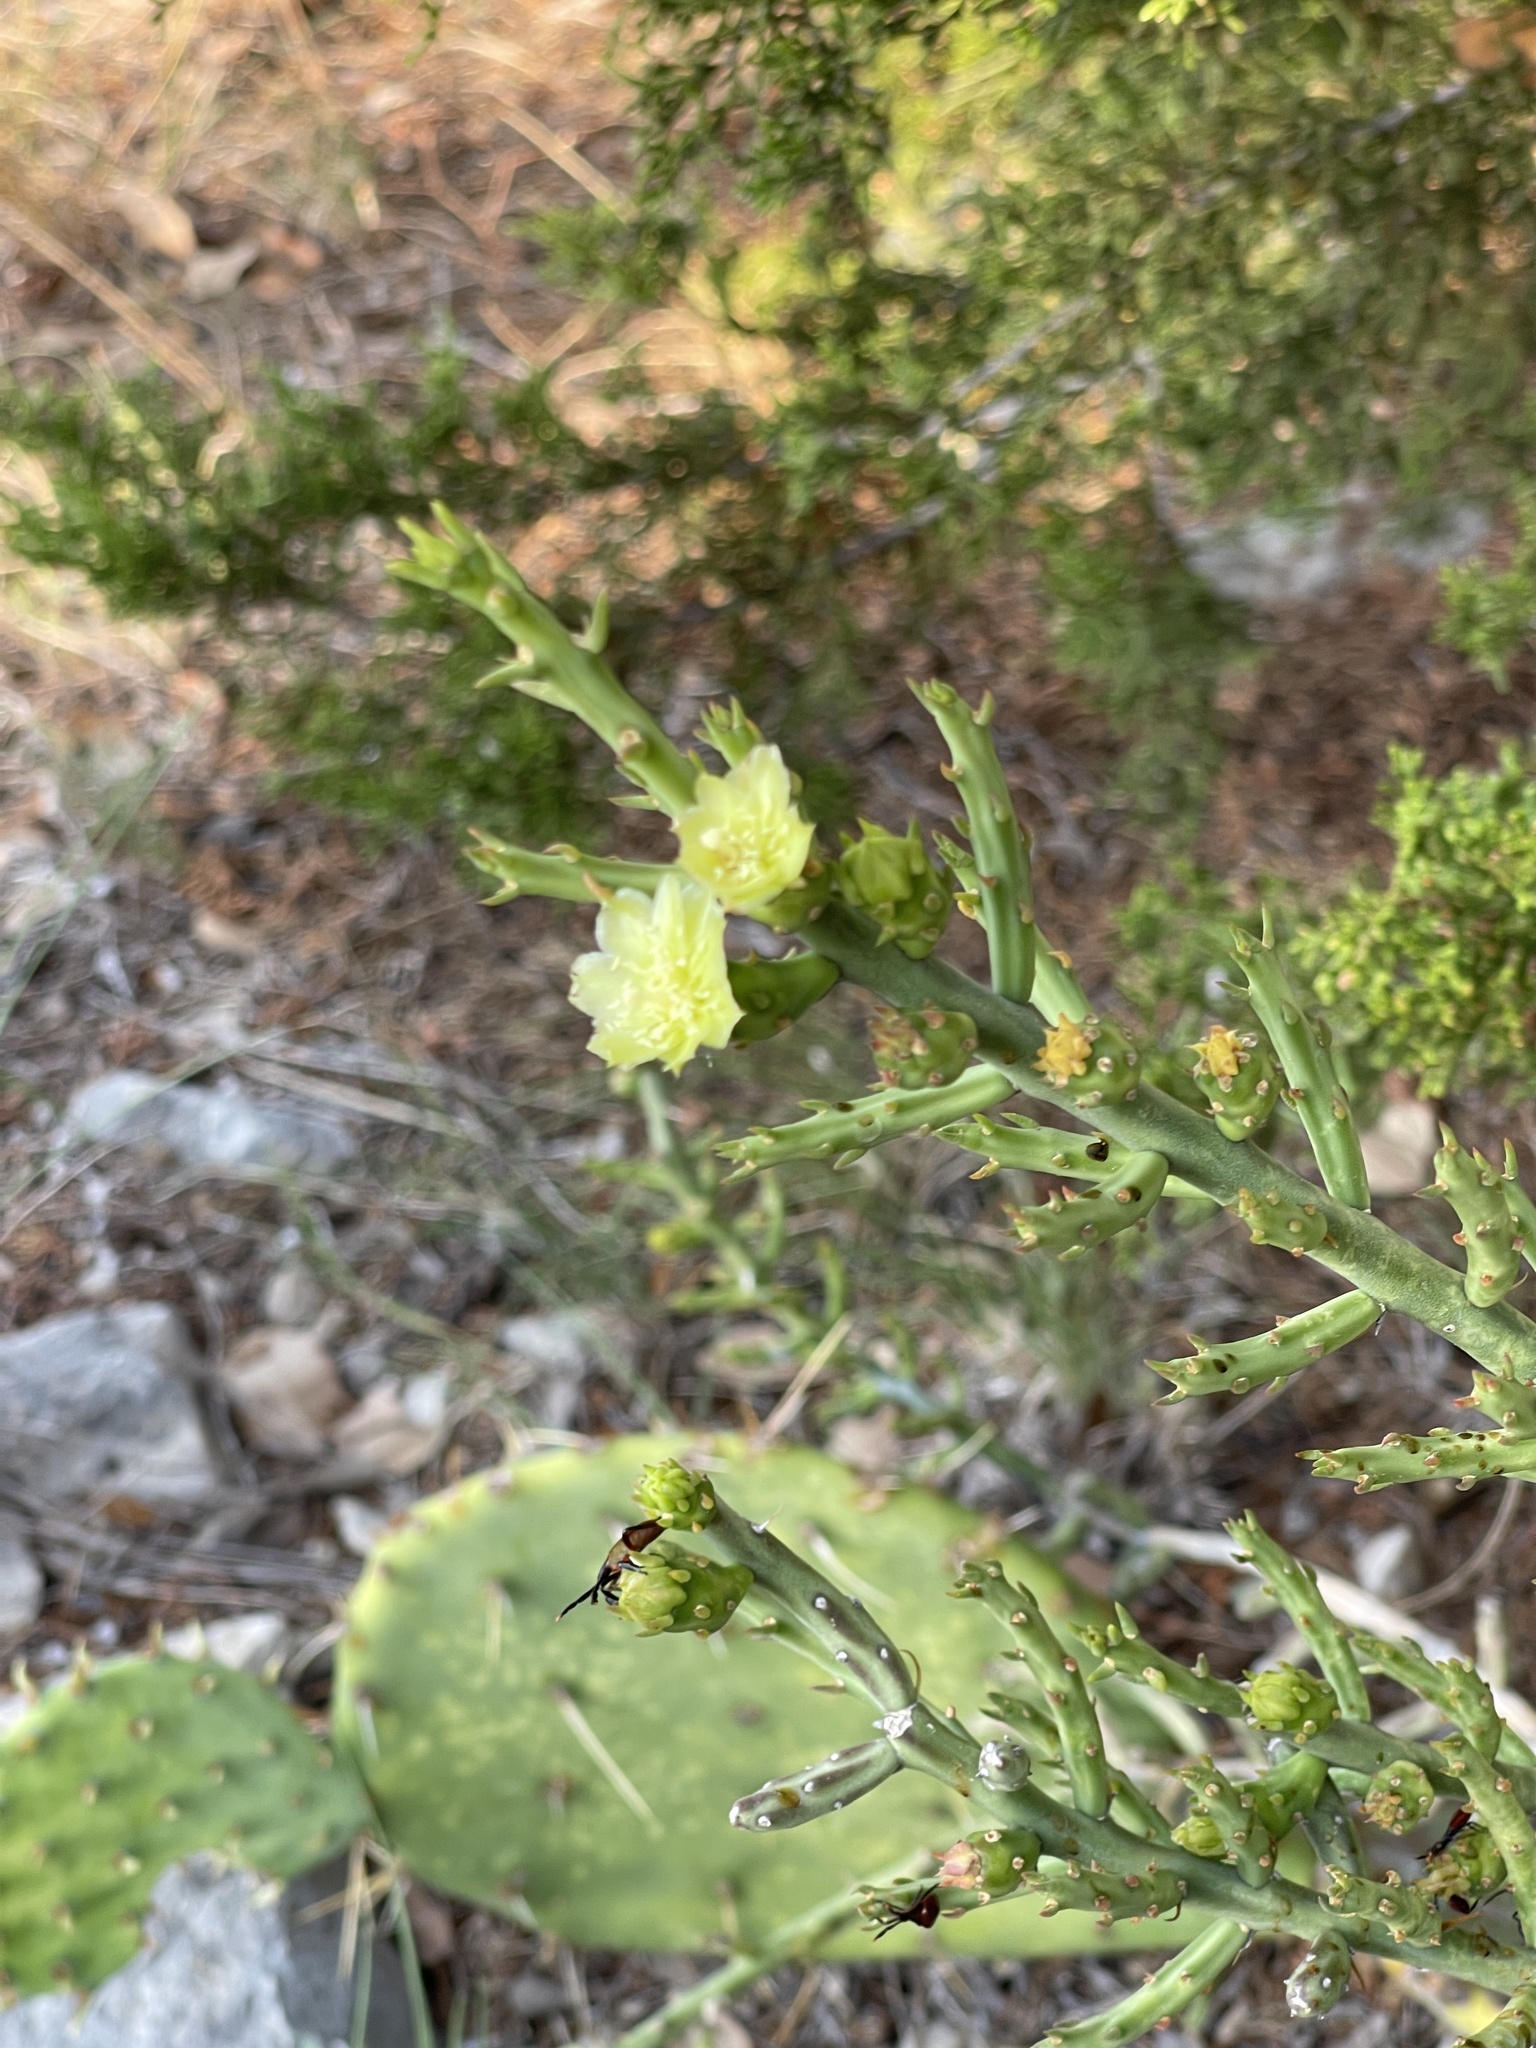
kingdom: Plantae
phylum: Tracheophyta
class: Magnoliopsida
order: Caryophyllales
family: Cactaceae
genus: Cylindropuntia
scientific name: Cylindropuntia leptocaulis
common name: Christmas cactus
